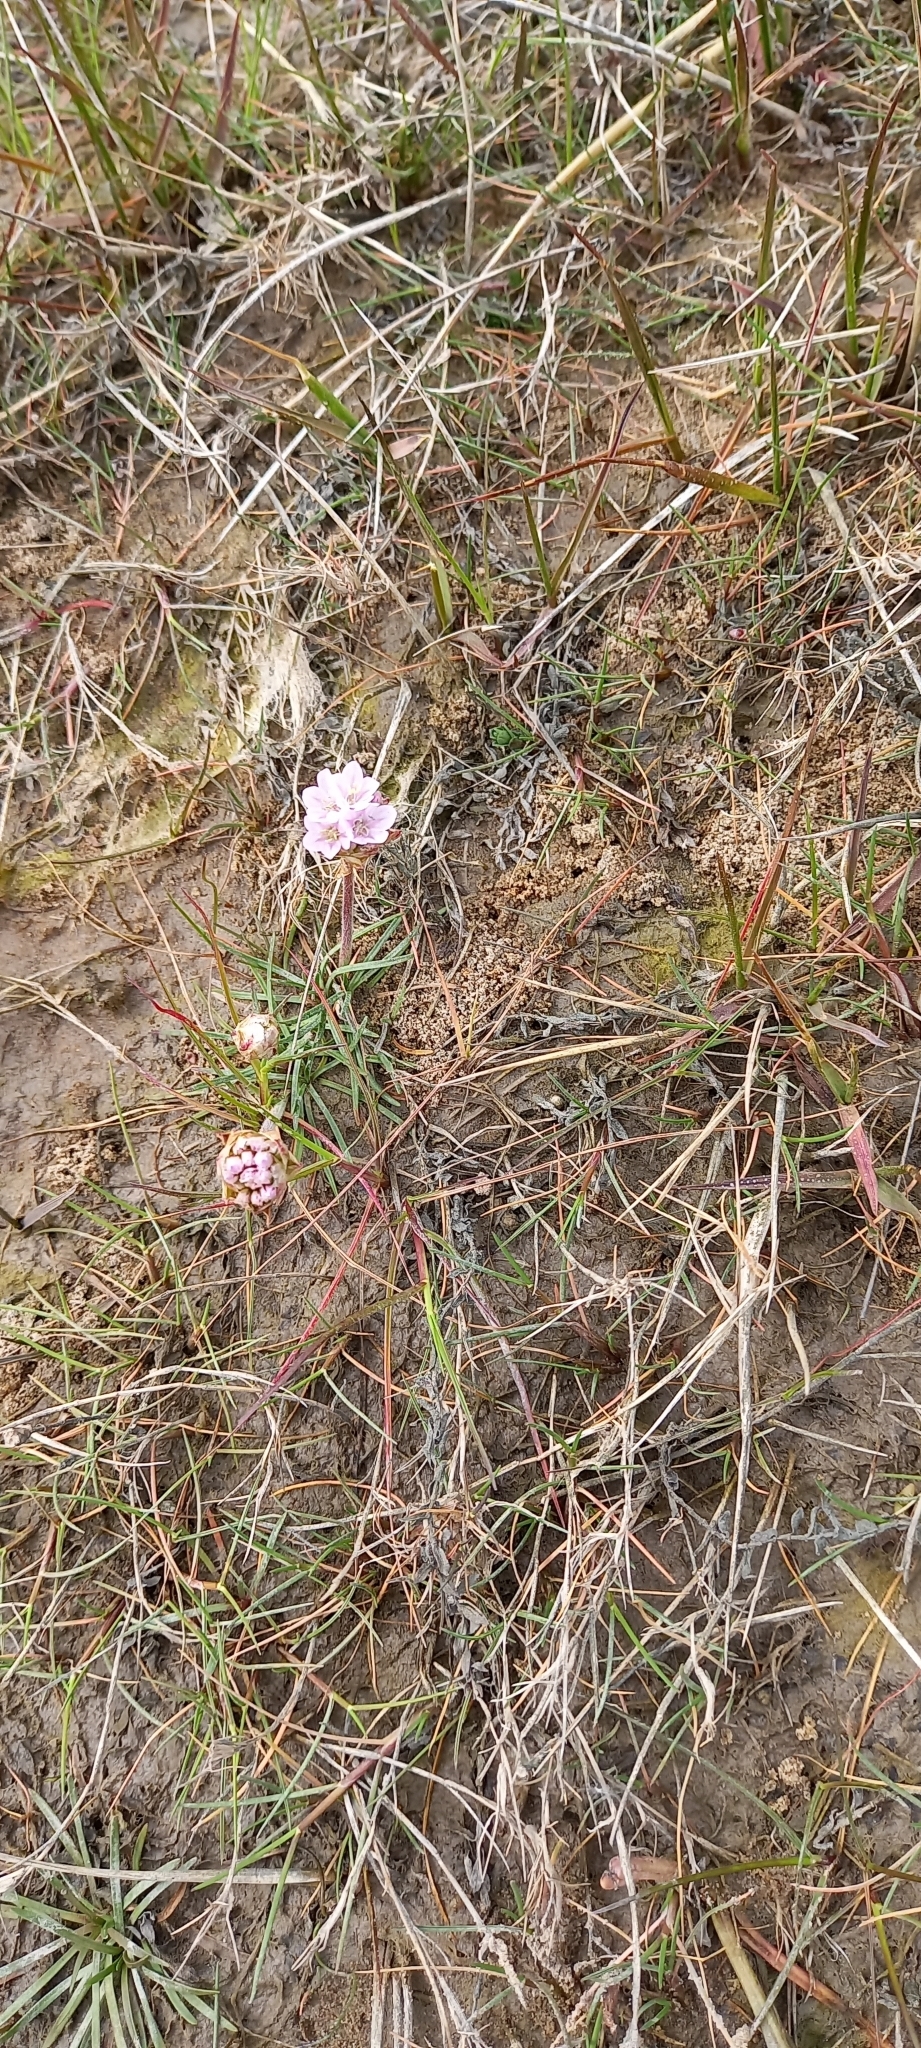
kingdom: Plantae
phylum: Tracheophyta
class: Magnoliopsida
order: Caryophyllales
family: Plumbaginaceae
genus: Armeria
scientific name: Armeria maritima
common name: Thrift
